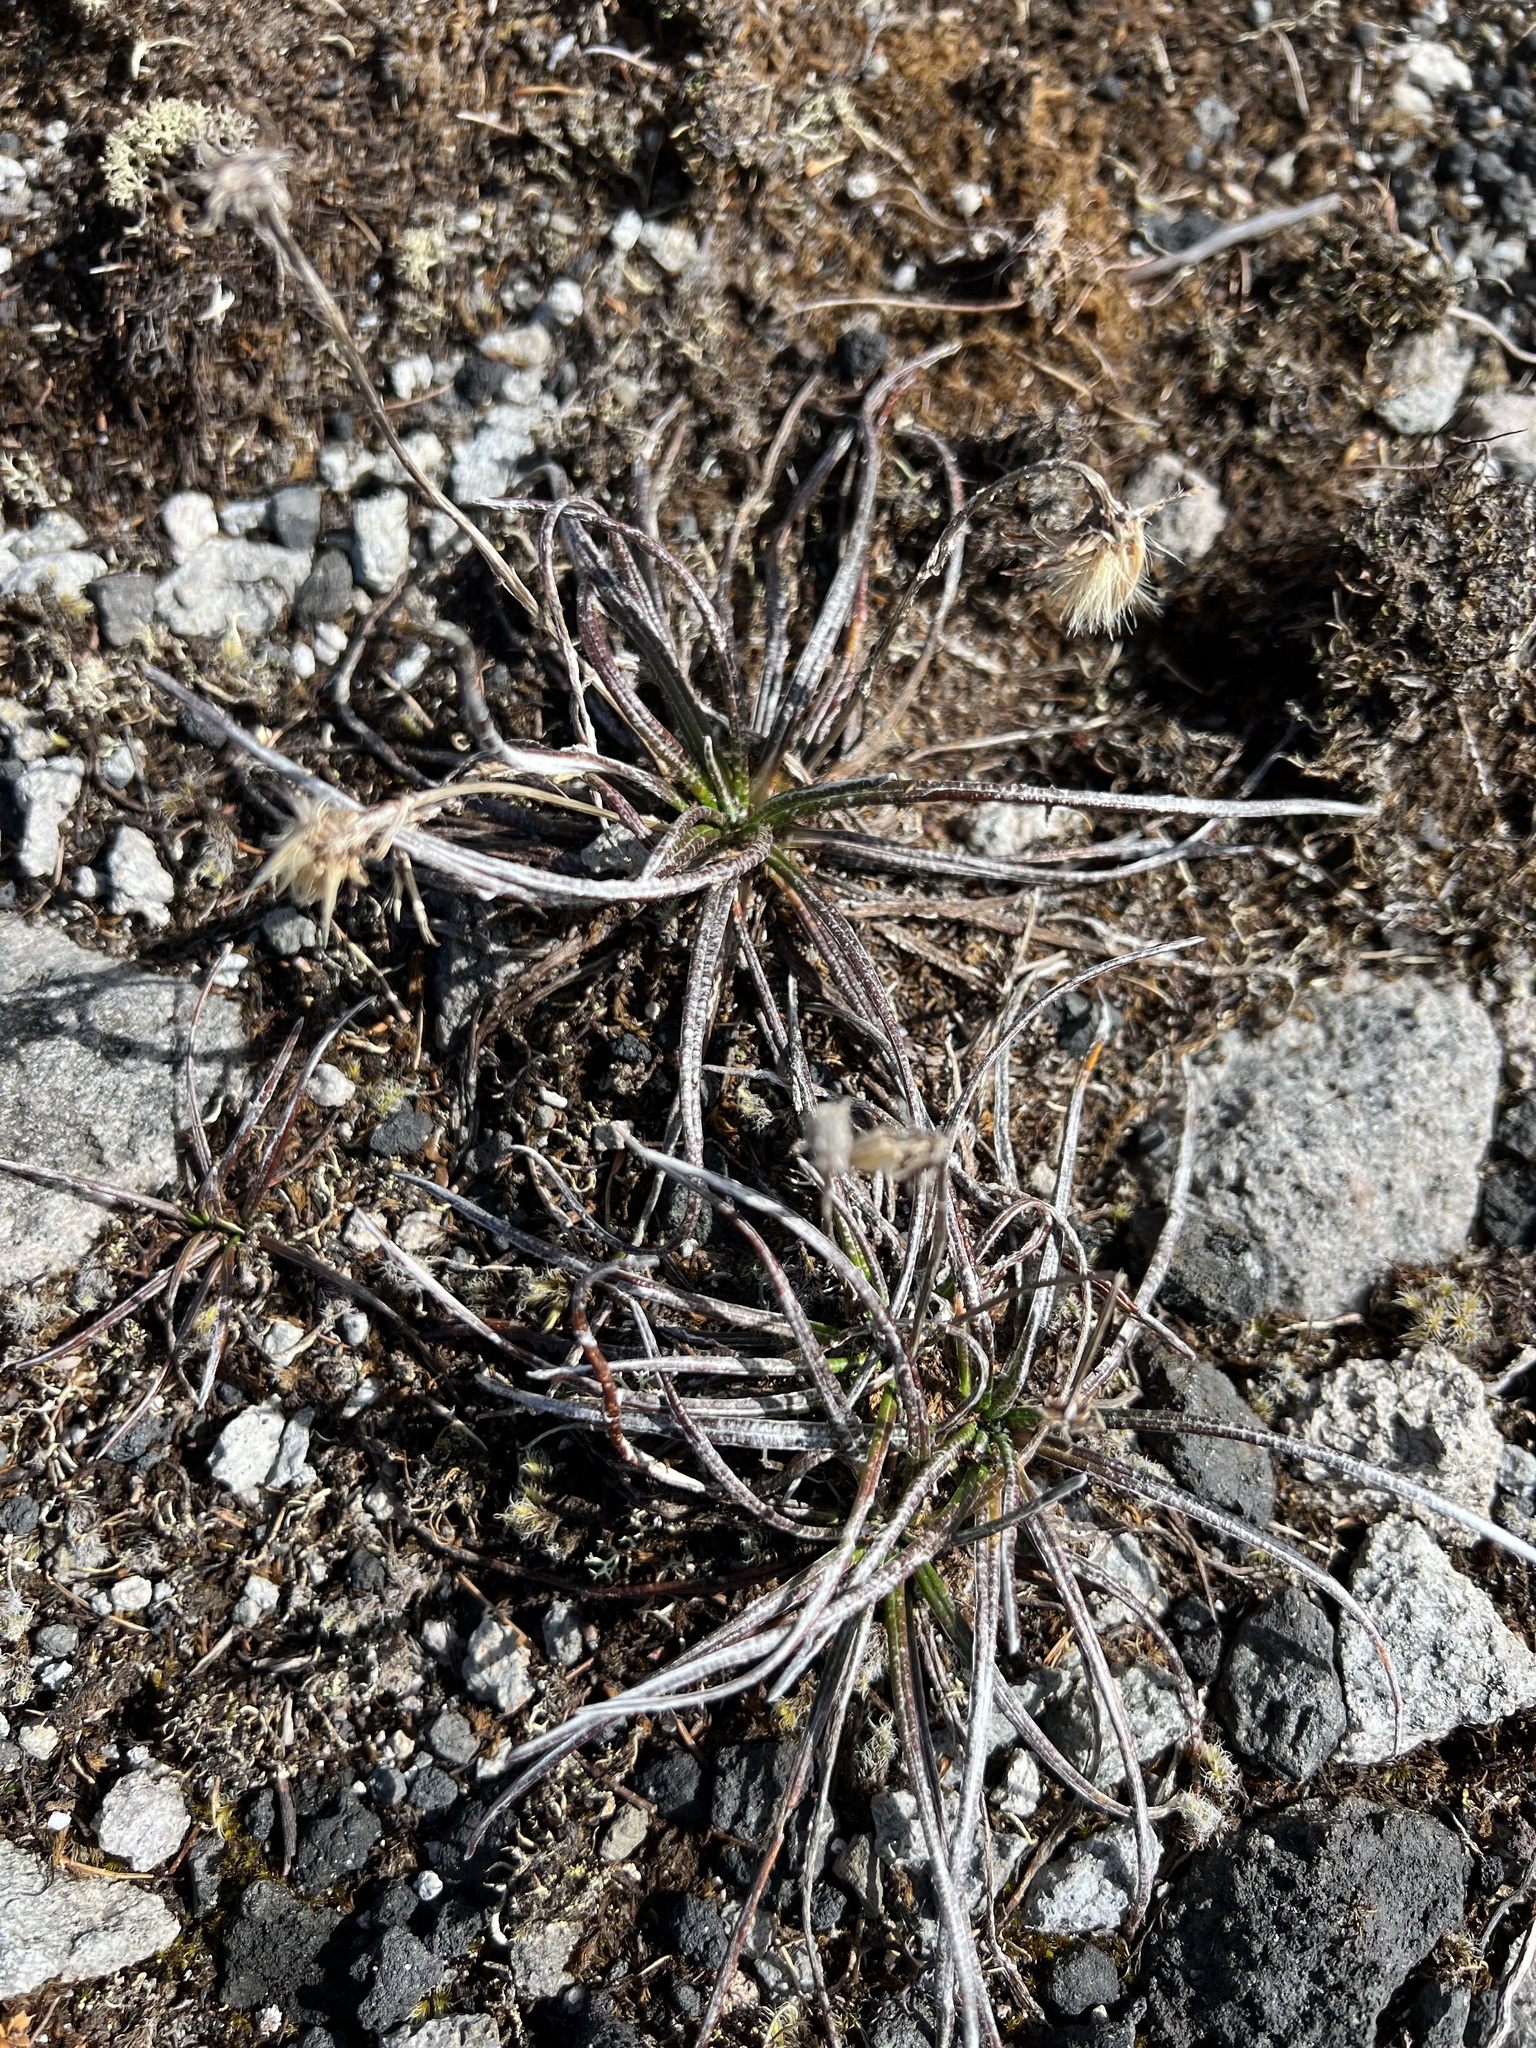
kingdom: Plantae
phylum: Tracheophyta
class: Magnoliopsida
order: Asterales
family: Asteraceae
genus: Celmisia
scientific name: Celmisia gracilenta
